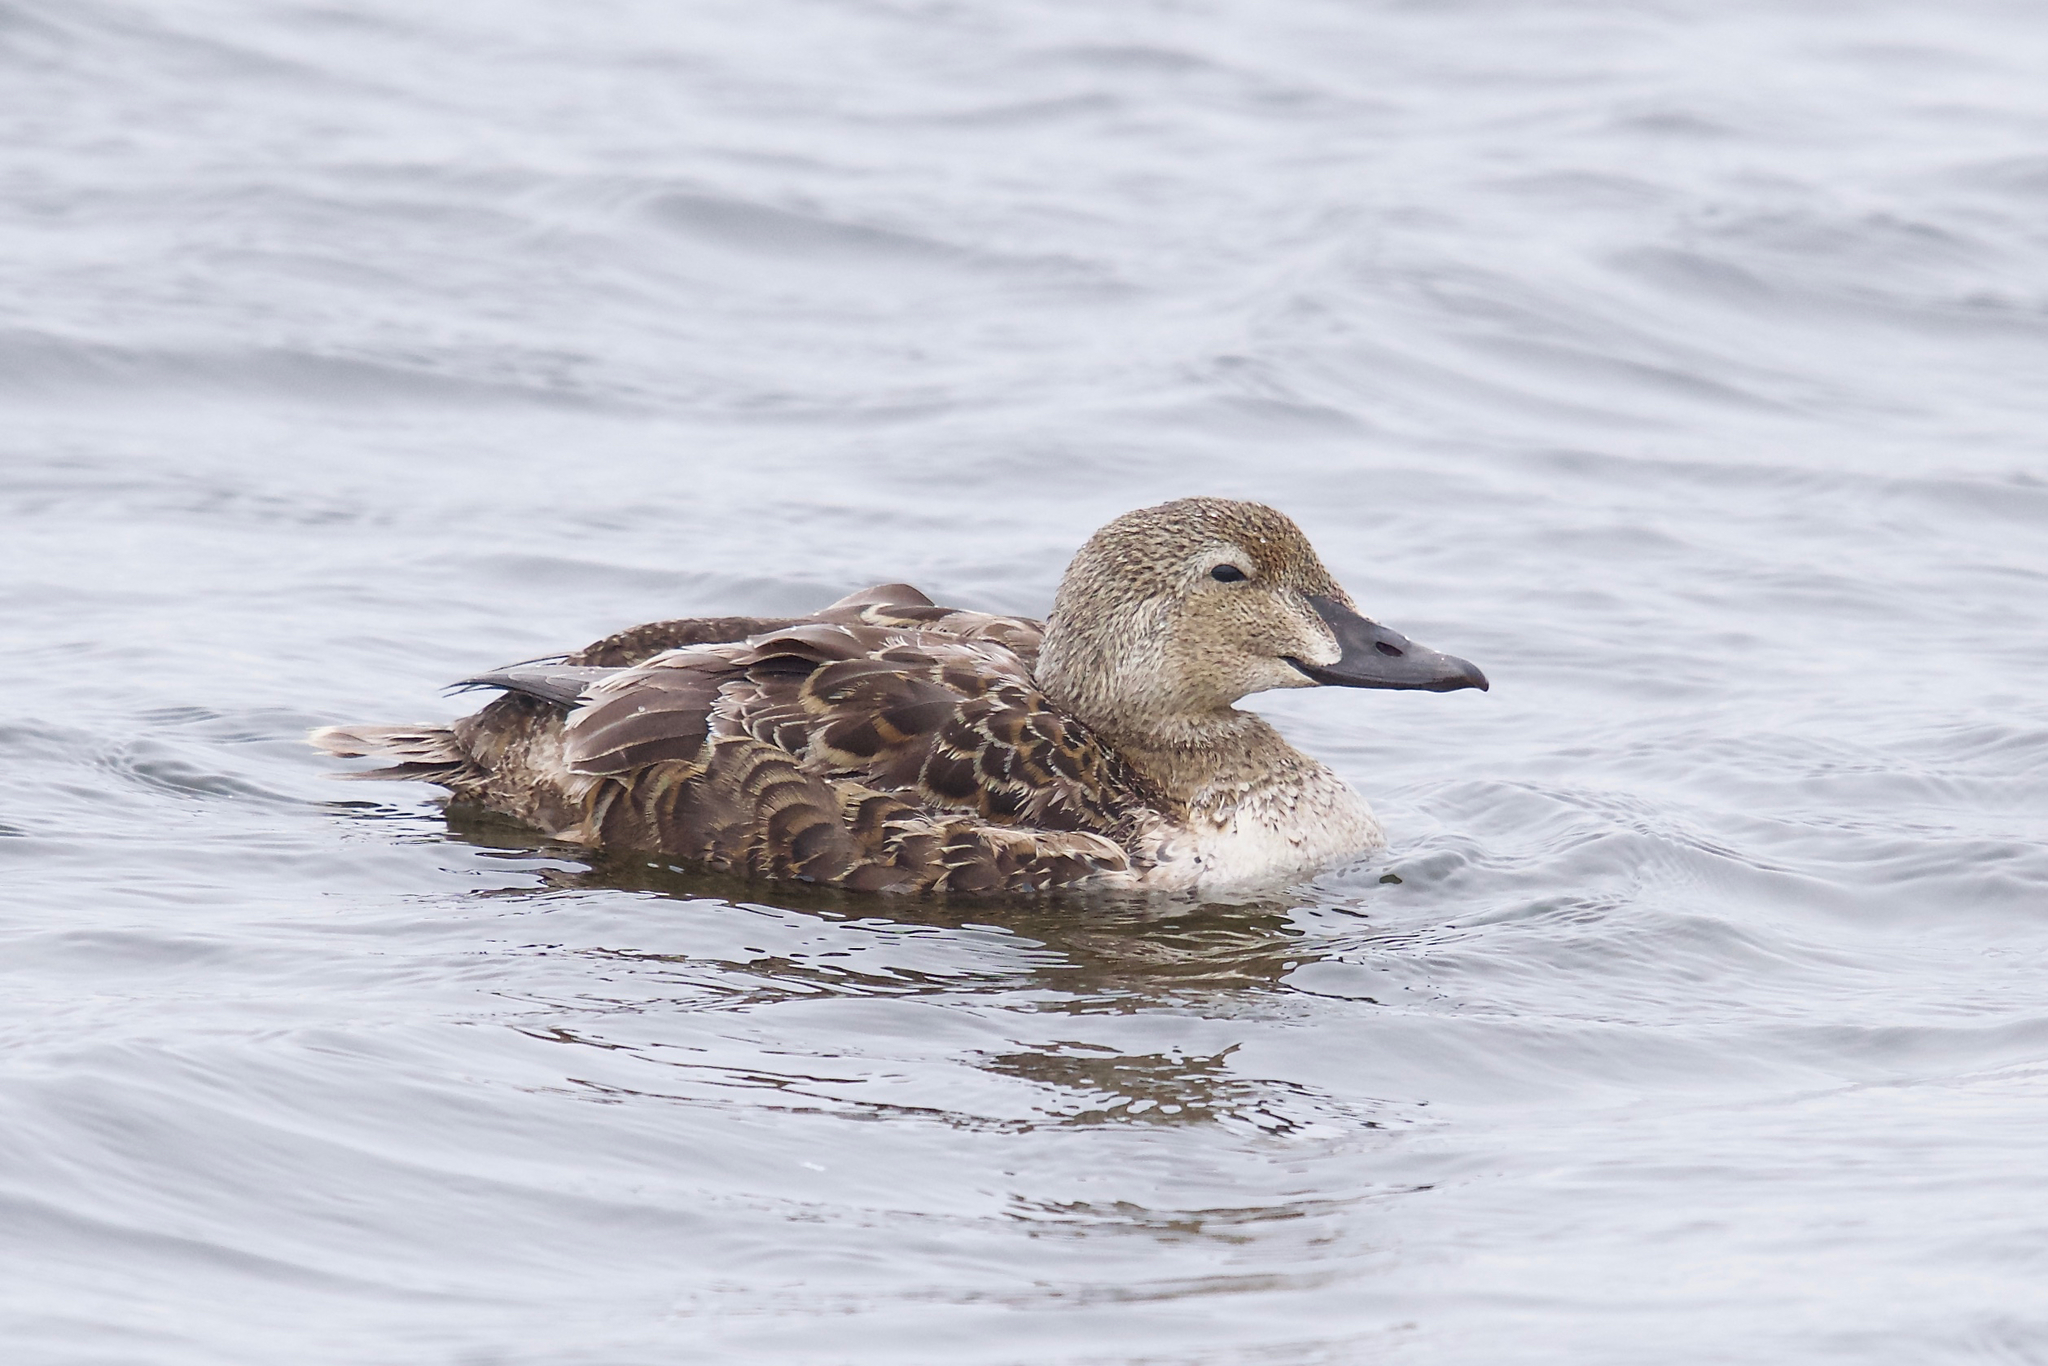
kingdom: Animalia
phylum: Chordata
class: Aves
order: Anseriformes
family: Anatidae
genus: Somateria
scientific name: Somateria spectabilis
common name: King eider
